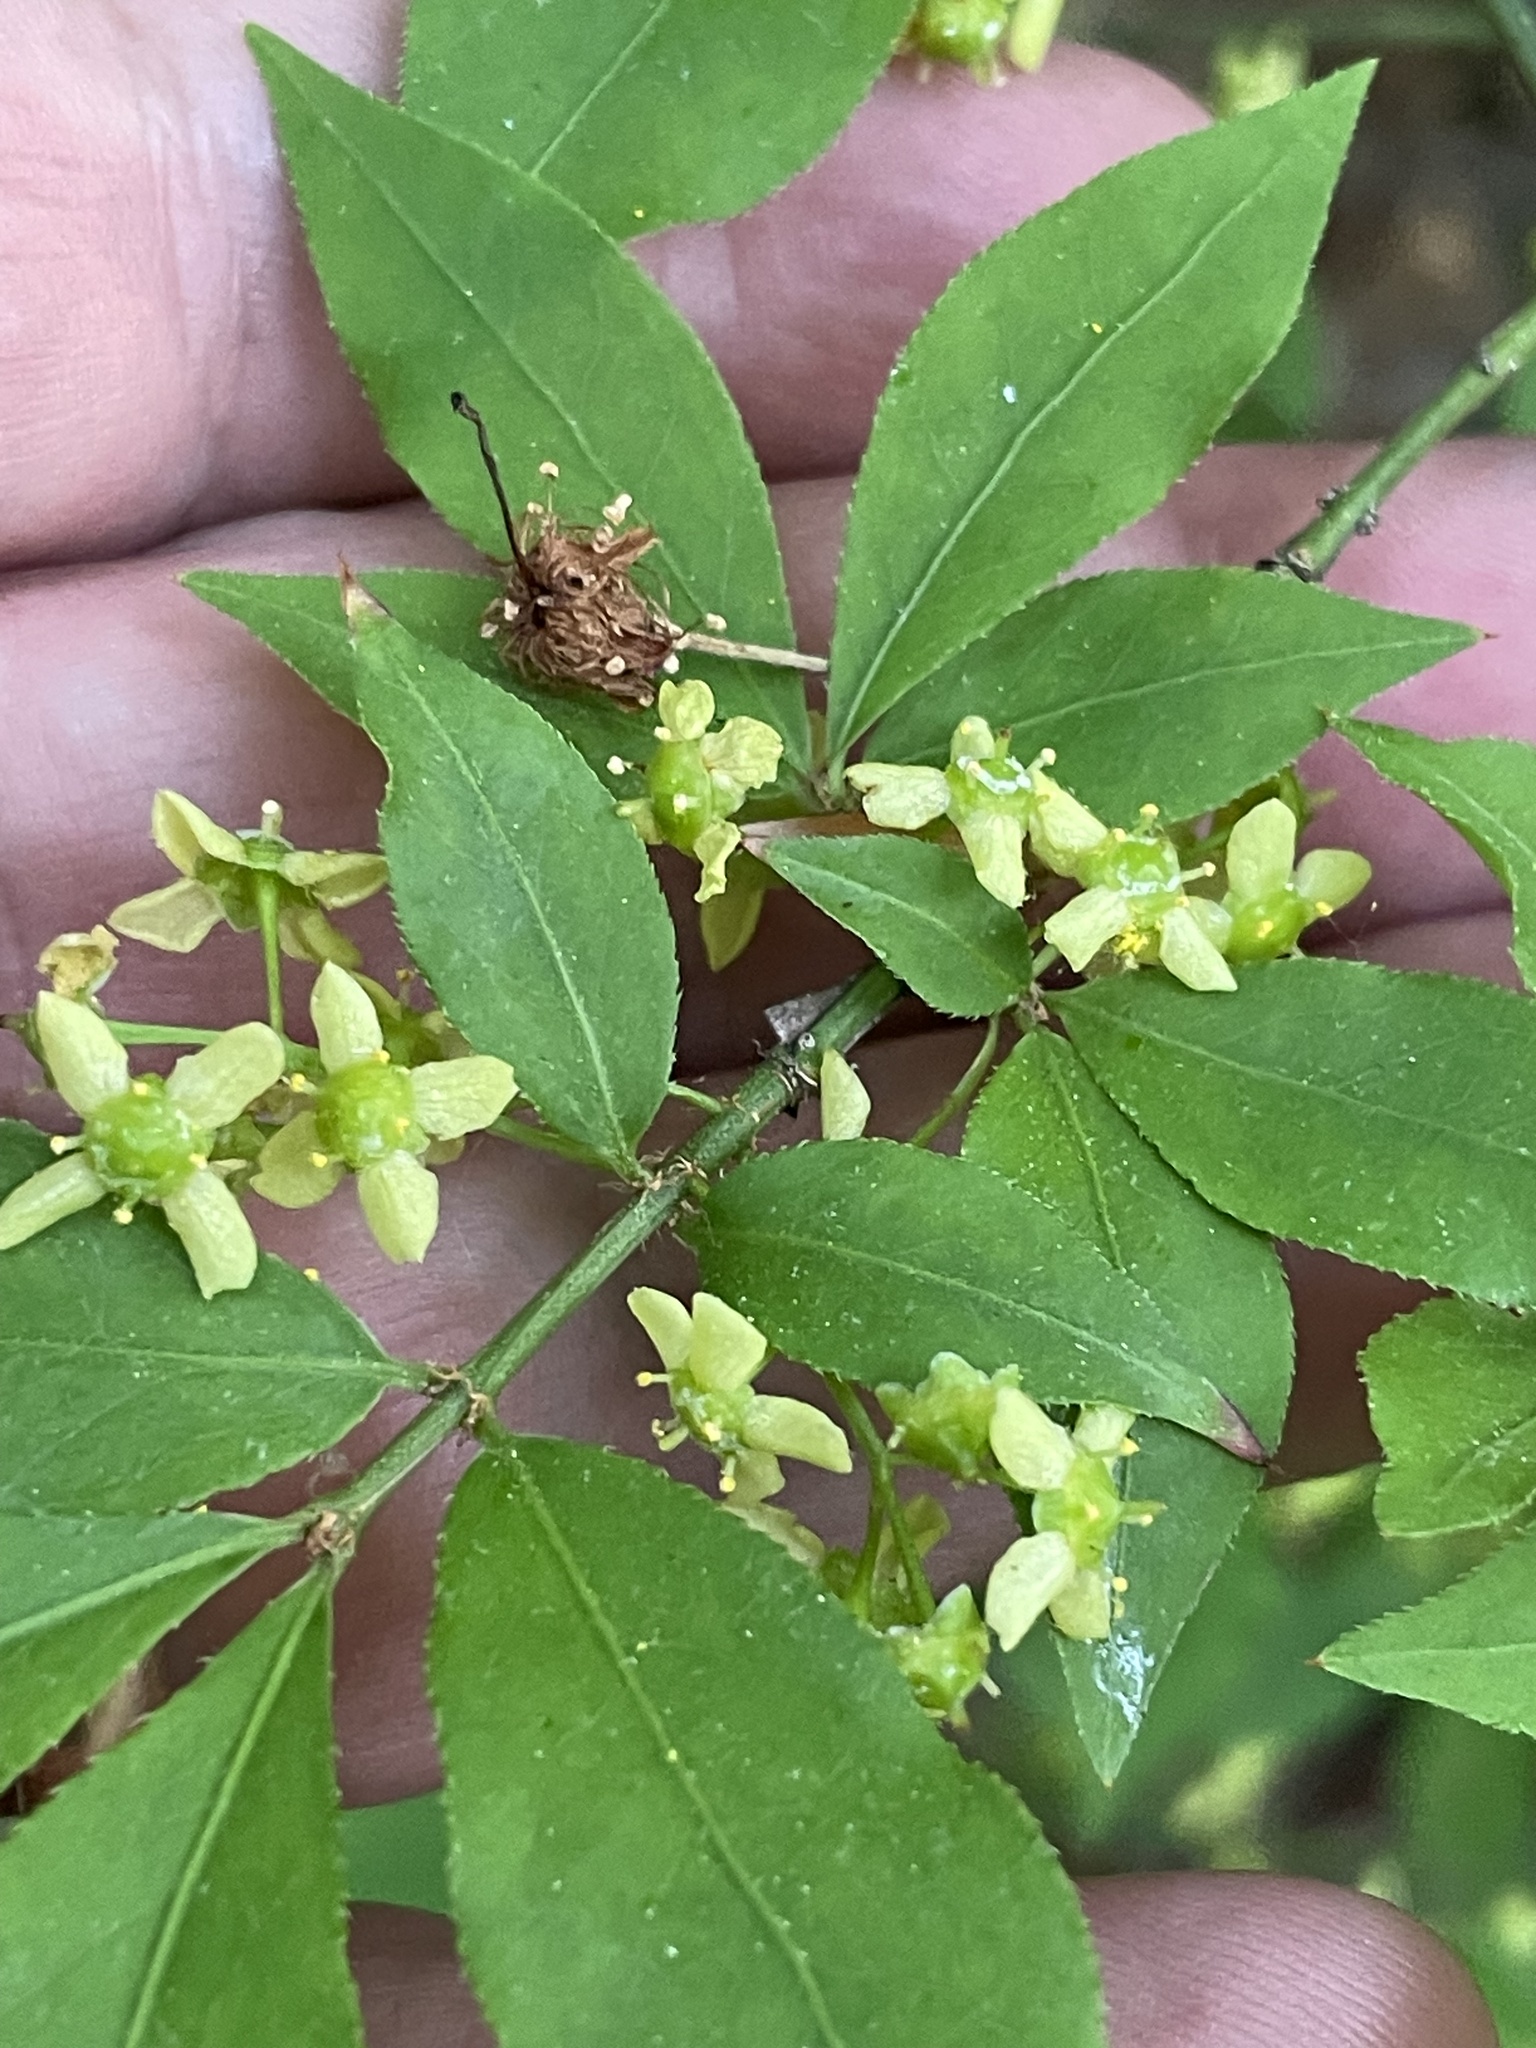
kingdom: Plantae
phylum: Tracheophyta
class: Magnoliopsida
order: Celastrales
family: Celastraceae
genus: Euonymus
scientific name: Euonymus alatus
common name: Winged euonymus
